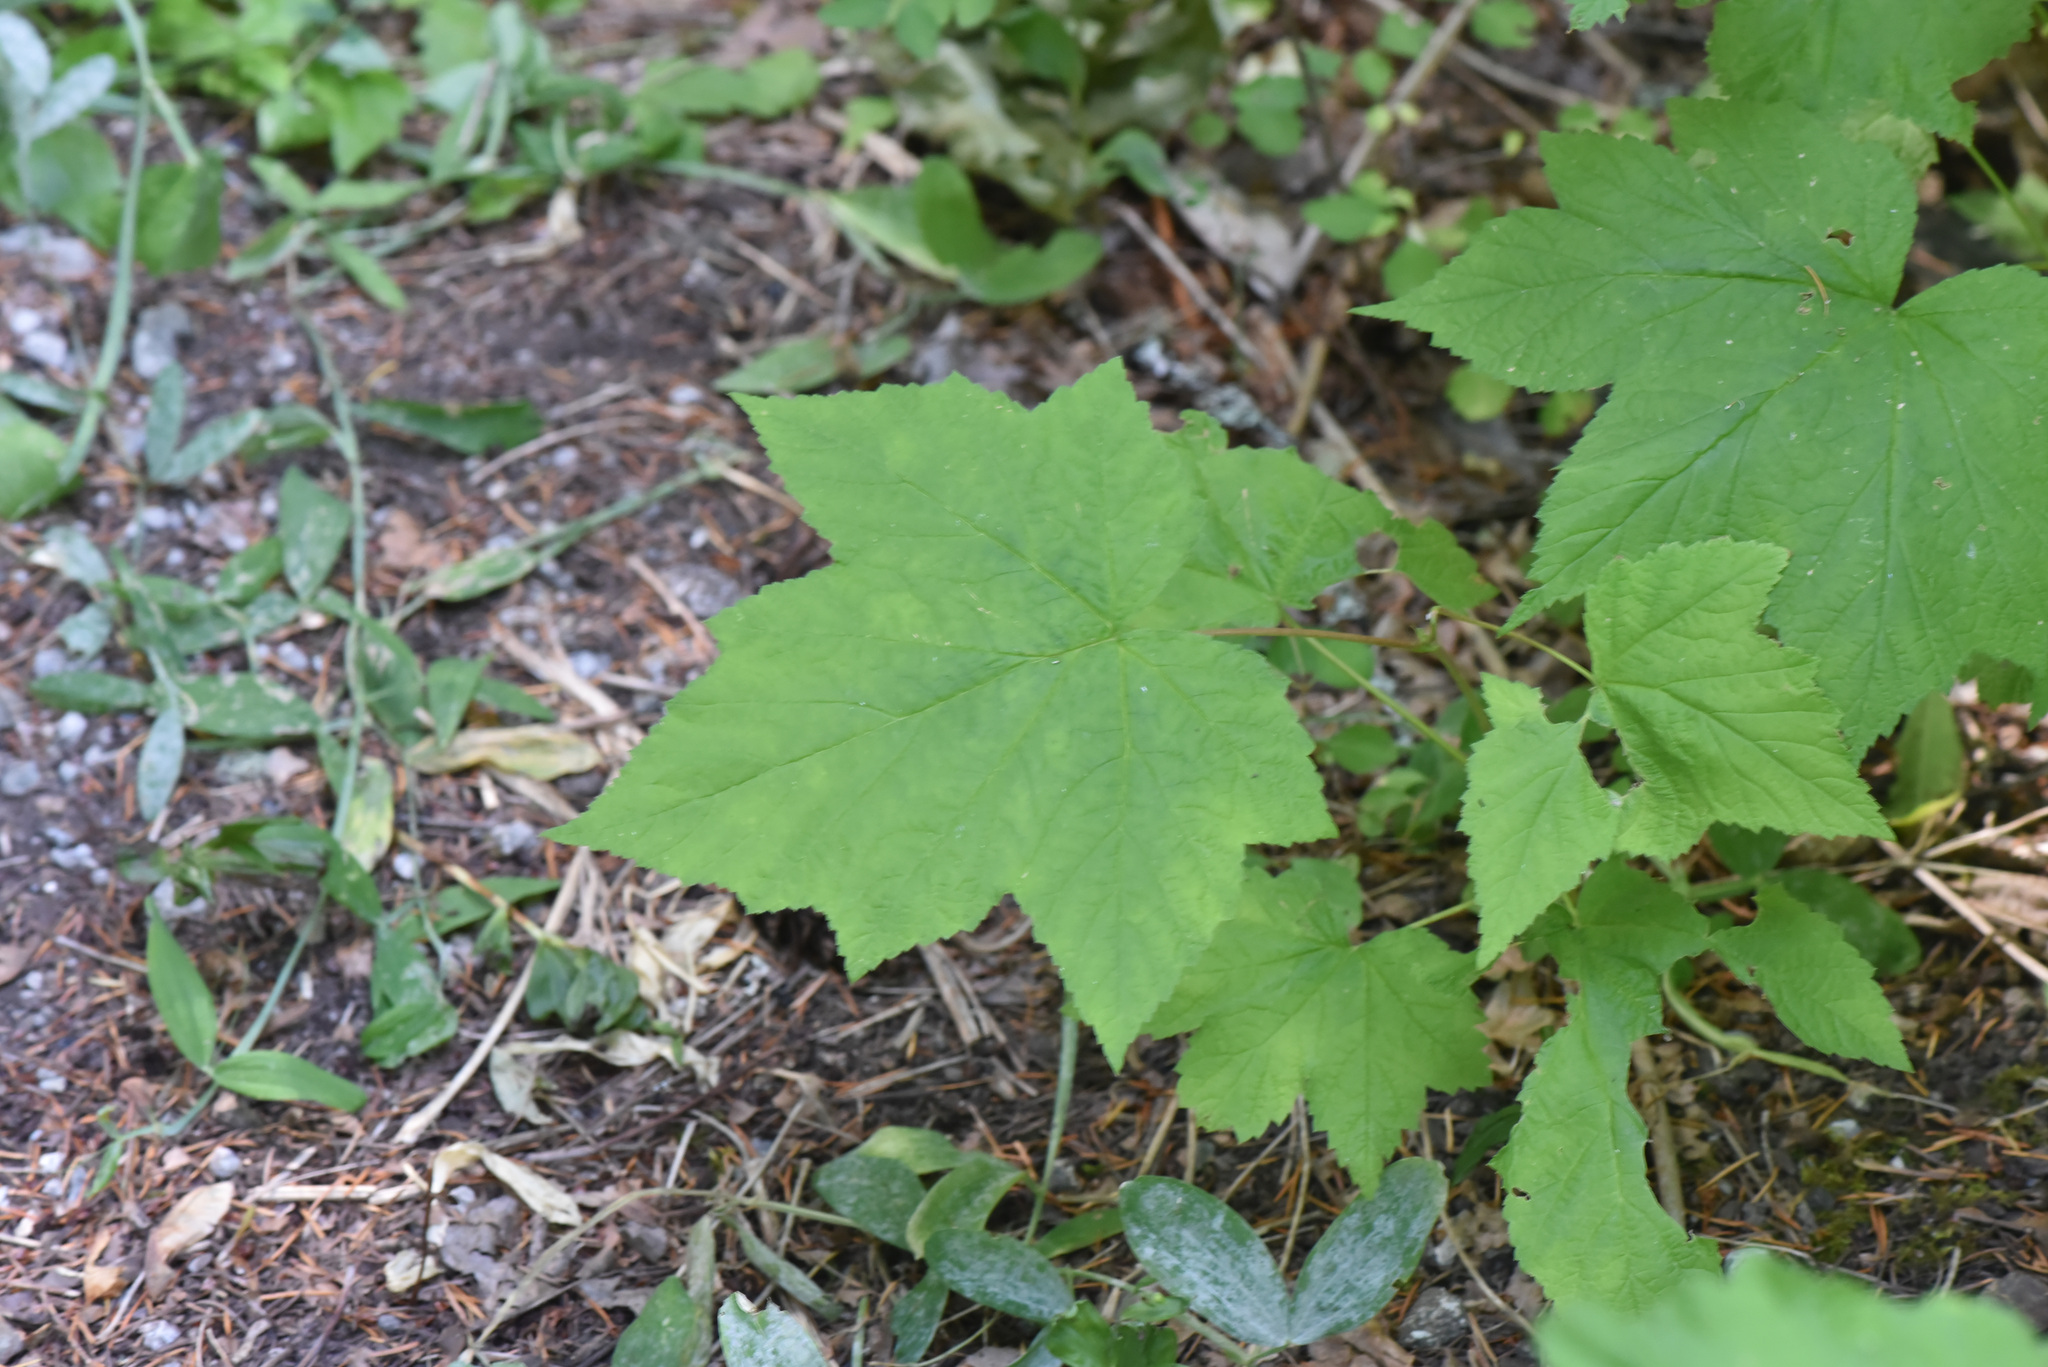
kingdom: Plantae
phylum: Tracheophyta
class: Magnoliopsida
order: Rosales
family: Rosaceae
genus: Rubus
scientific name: Rubus parviflorus
